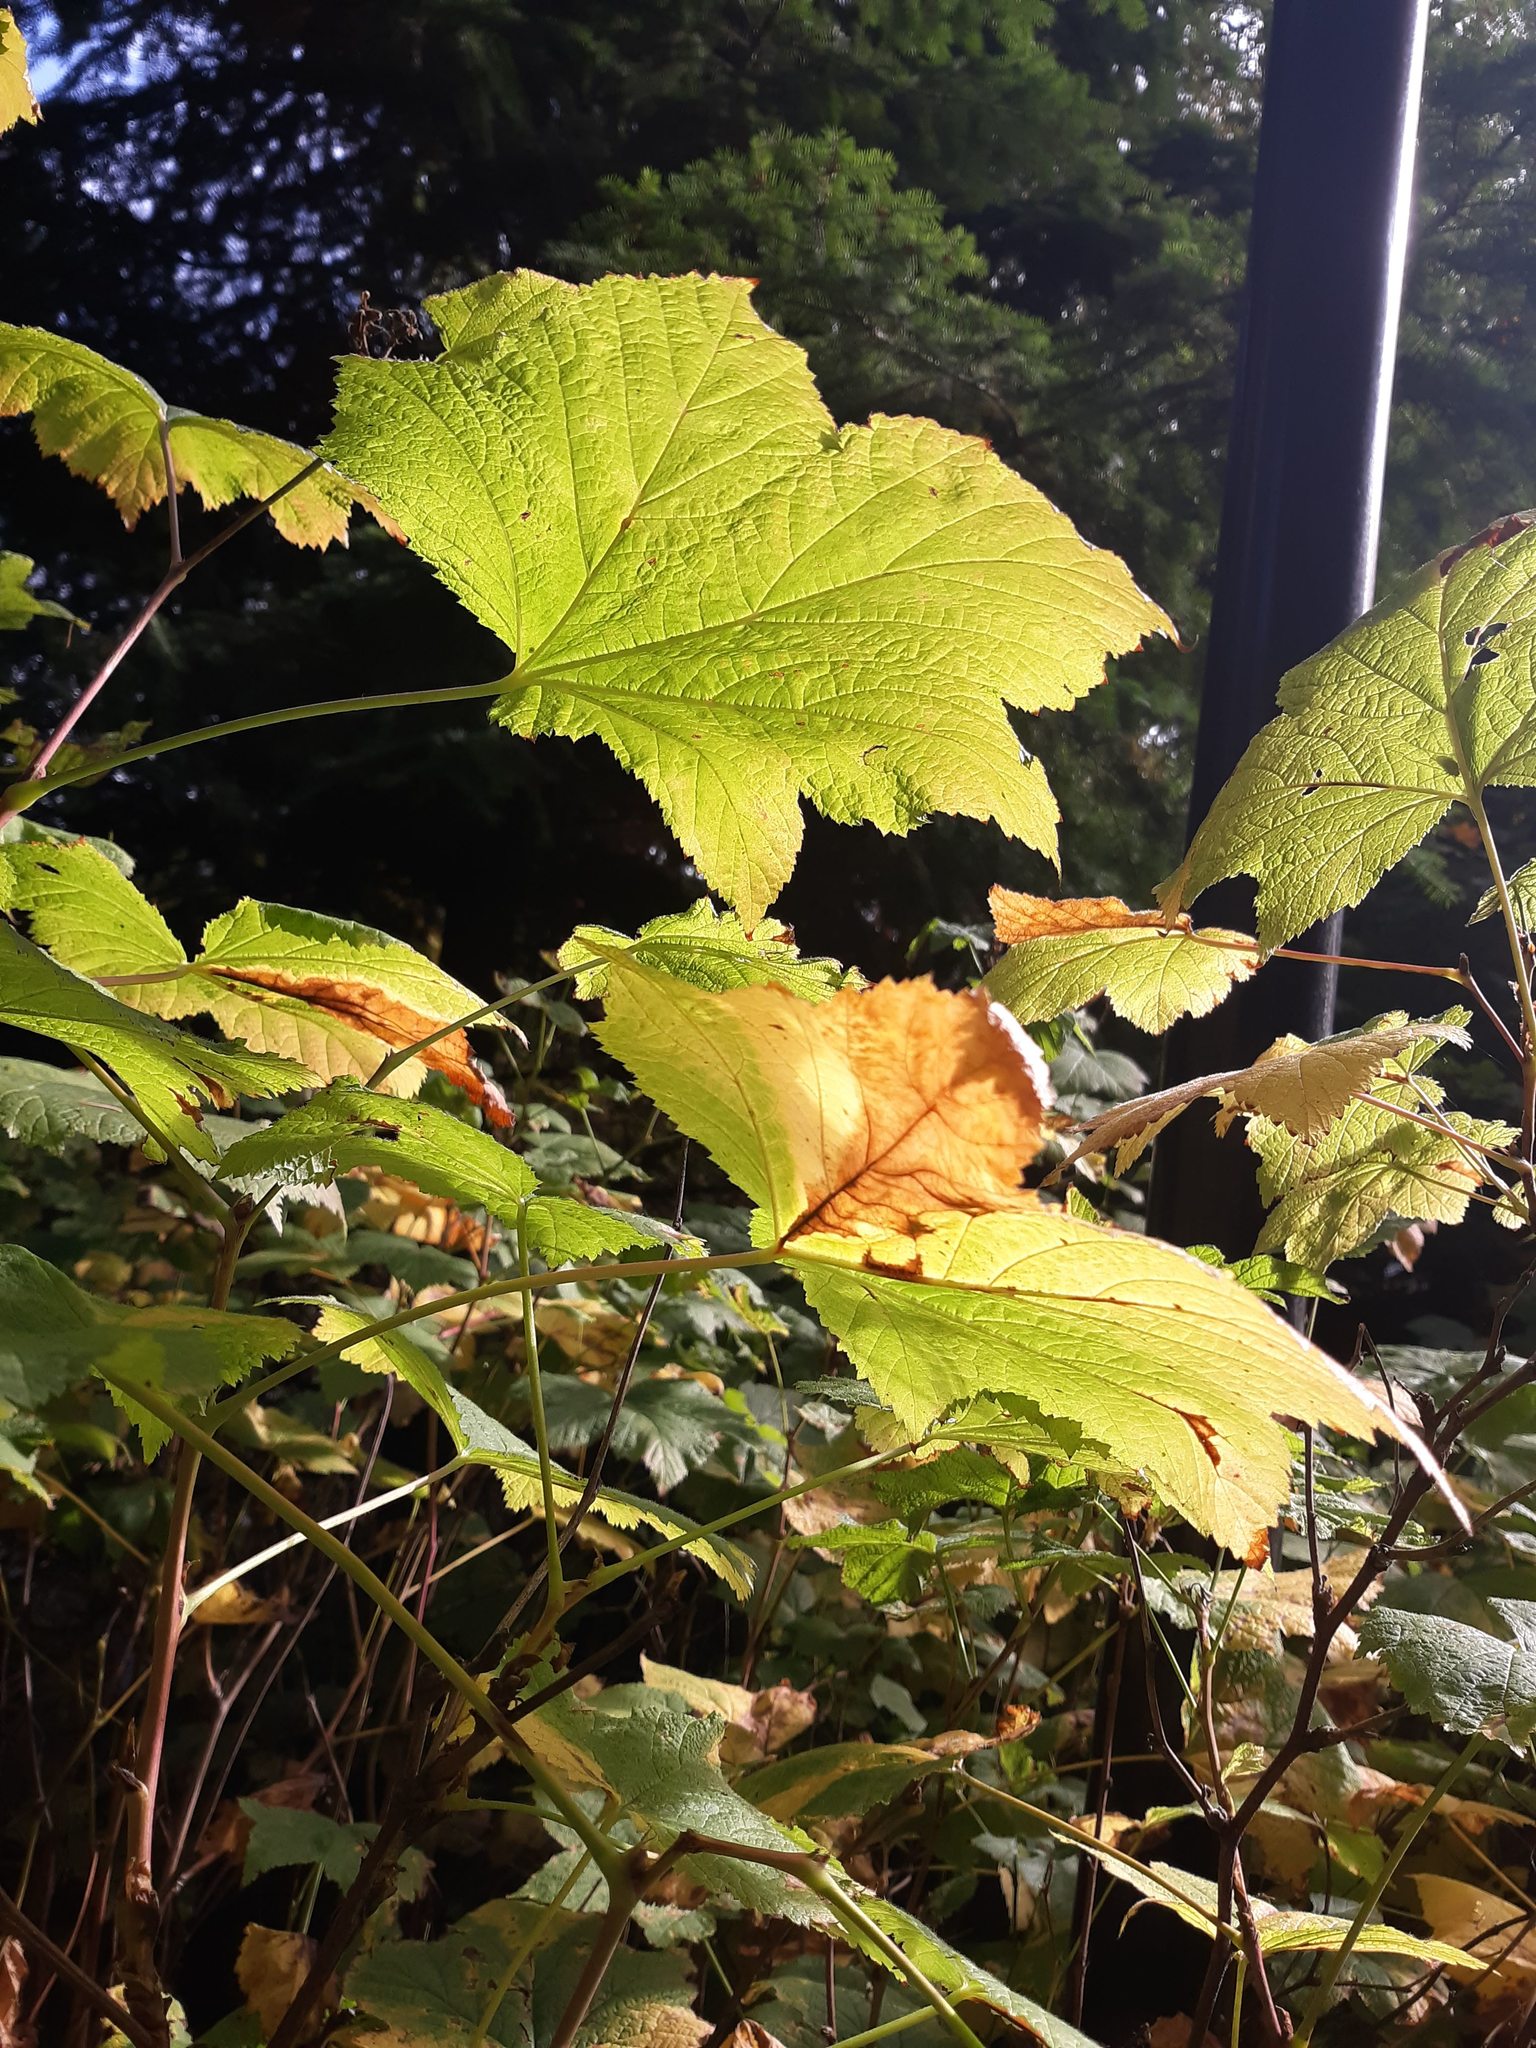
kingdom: Plantae
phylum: Tracheophyta
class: Magnoliopsida
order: Rosales
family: Rosaceae
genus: Rubus
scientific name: Rubus parviflorus
